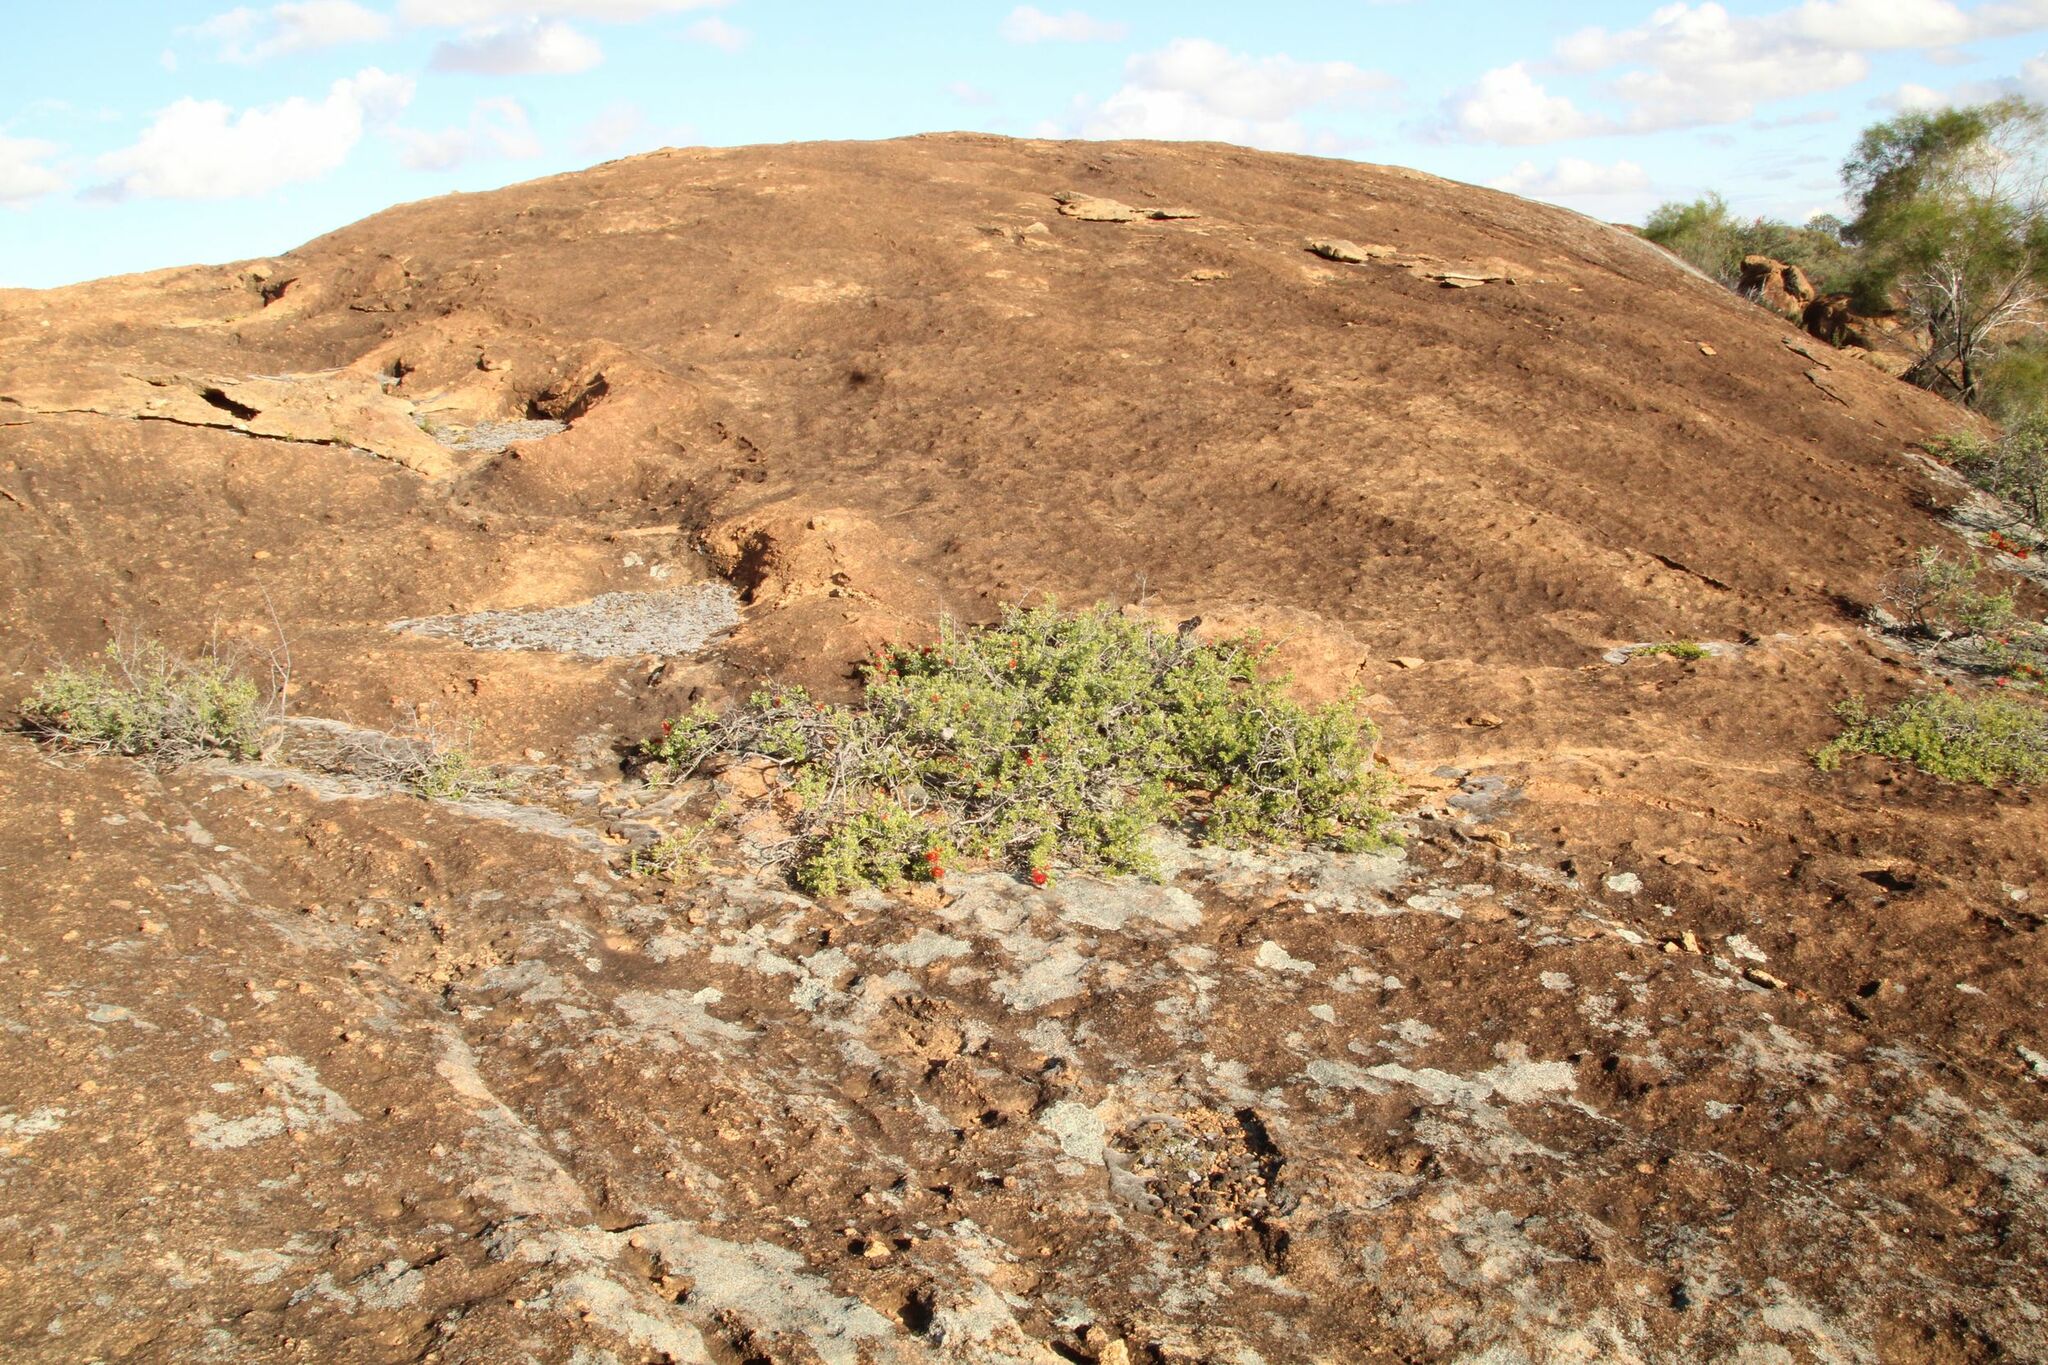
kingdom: Plantae
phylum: Tracheophyta
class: Magnoliopsida
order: Myrtales
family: Myrtaceae
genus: Kunzea
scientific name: Kunzea pulchella
